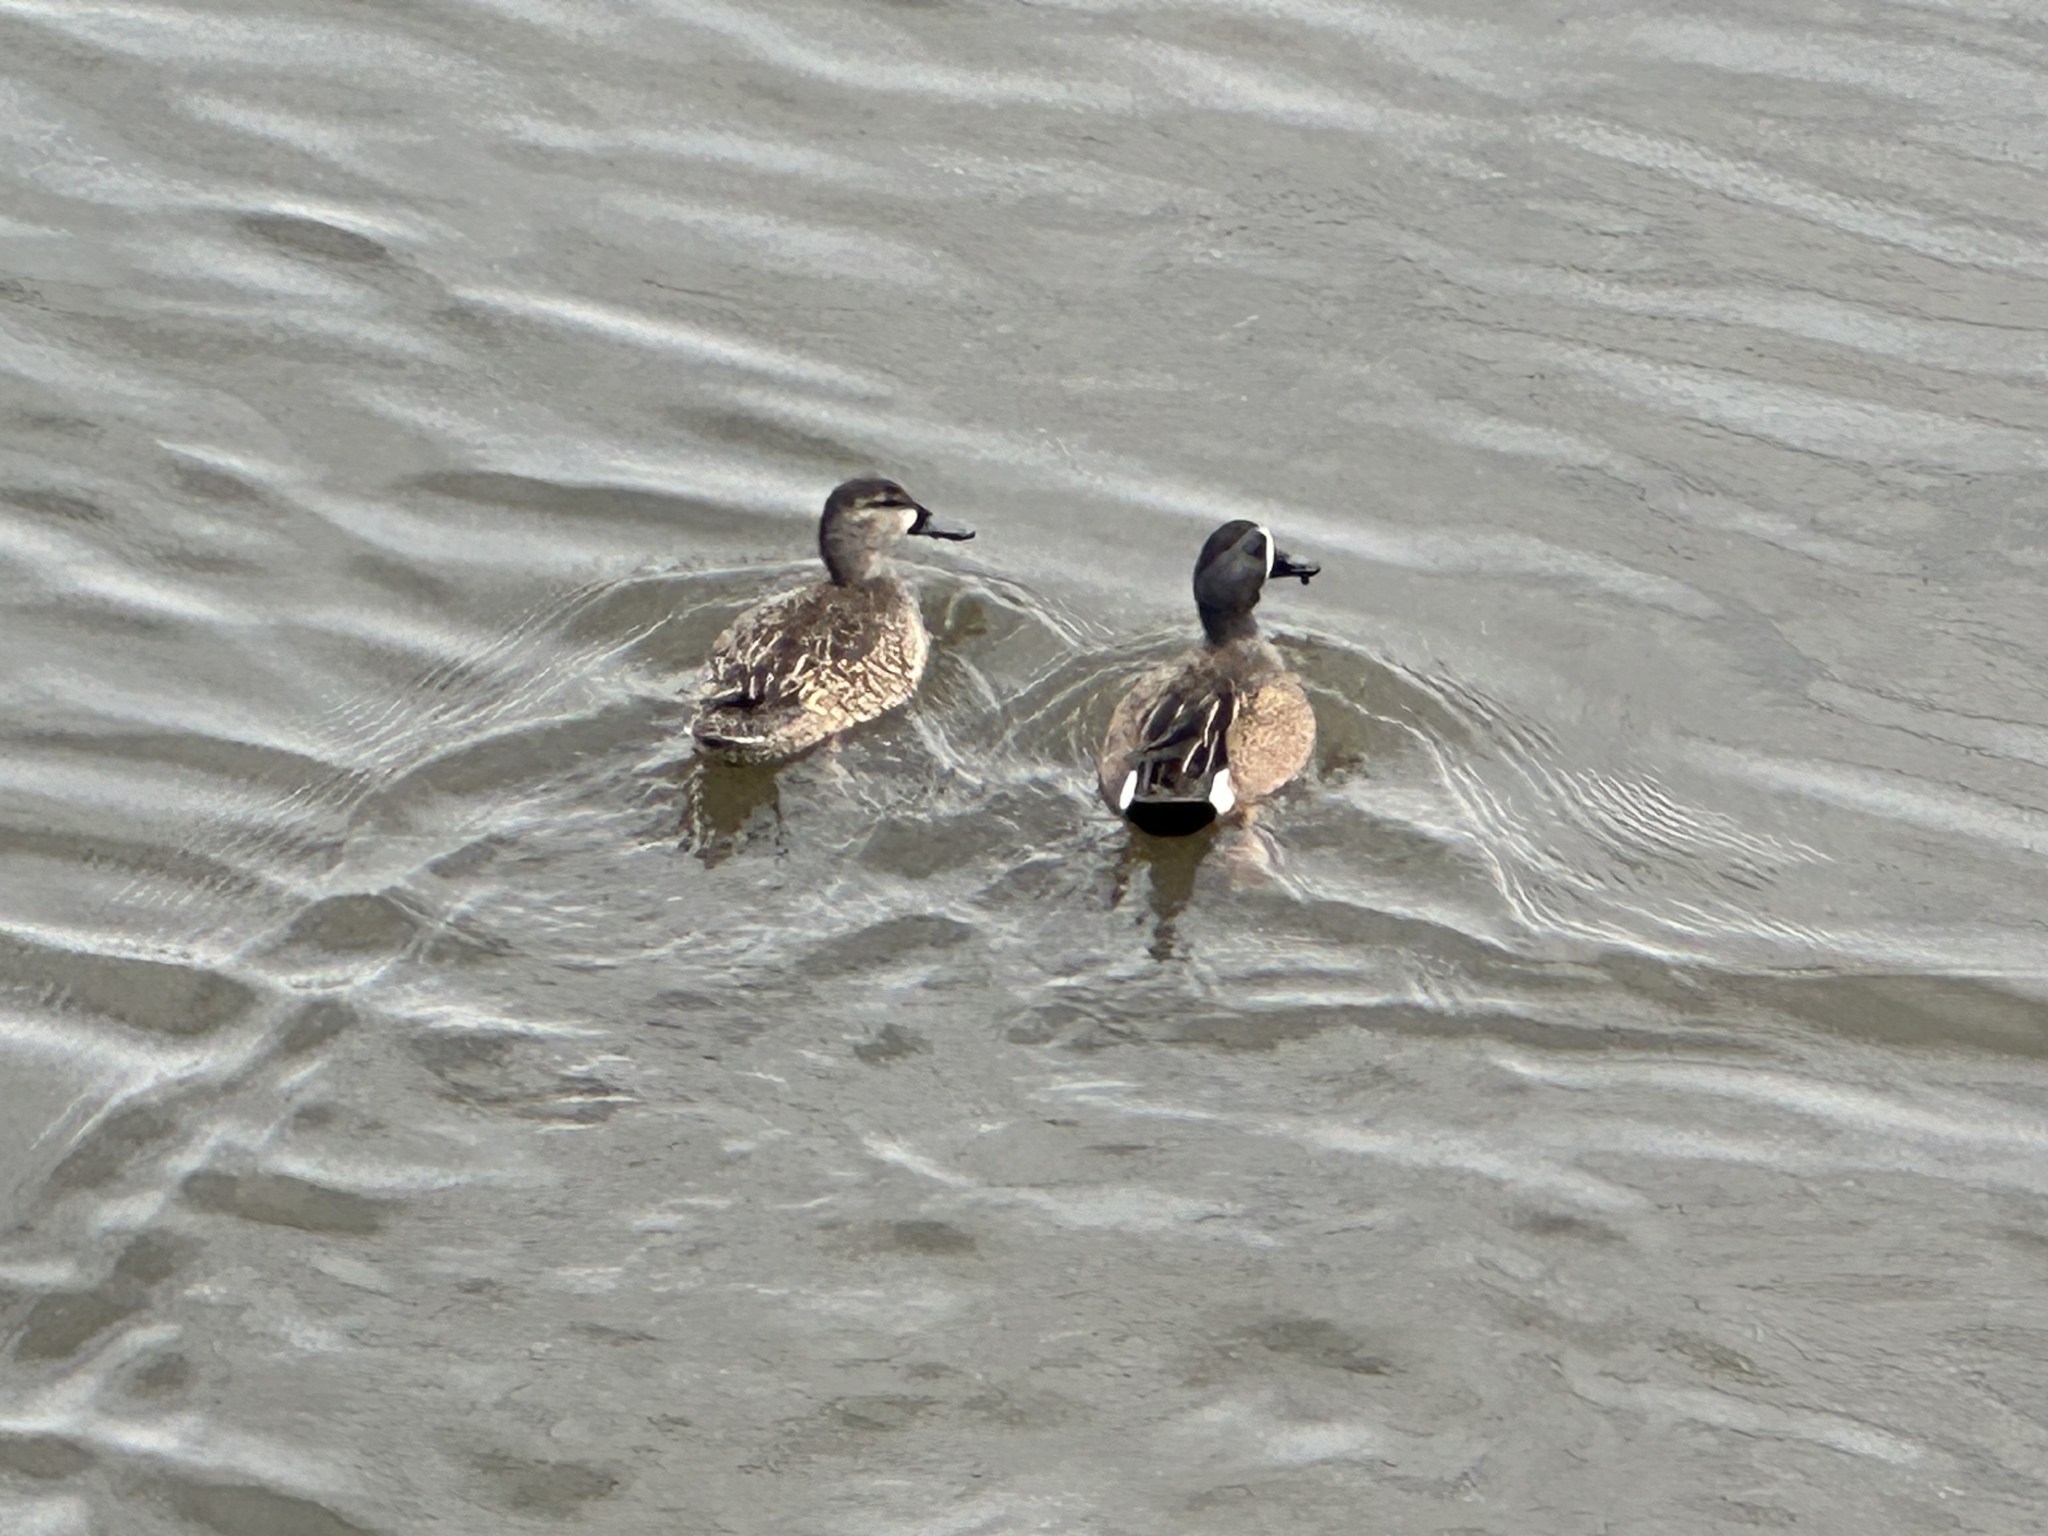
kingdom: Animalia
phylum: Chordata
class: Aves
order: Anseriformes
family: Anatidae
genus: Spatula
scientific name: Spatula discors
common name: Blue-winged teal
